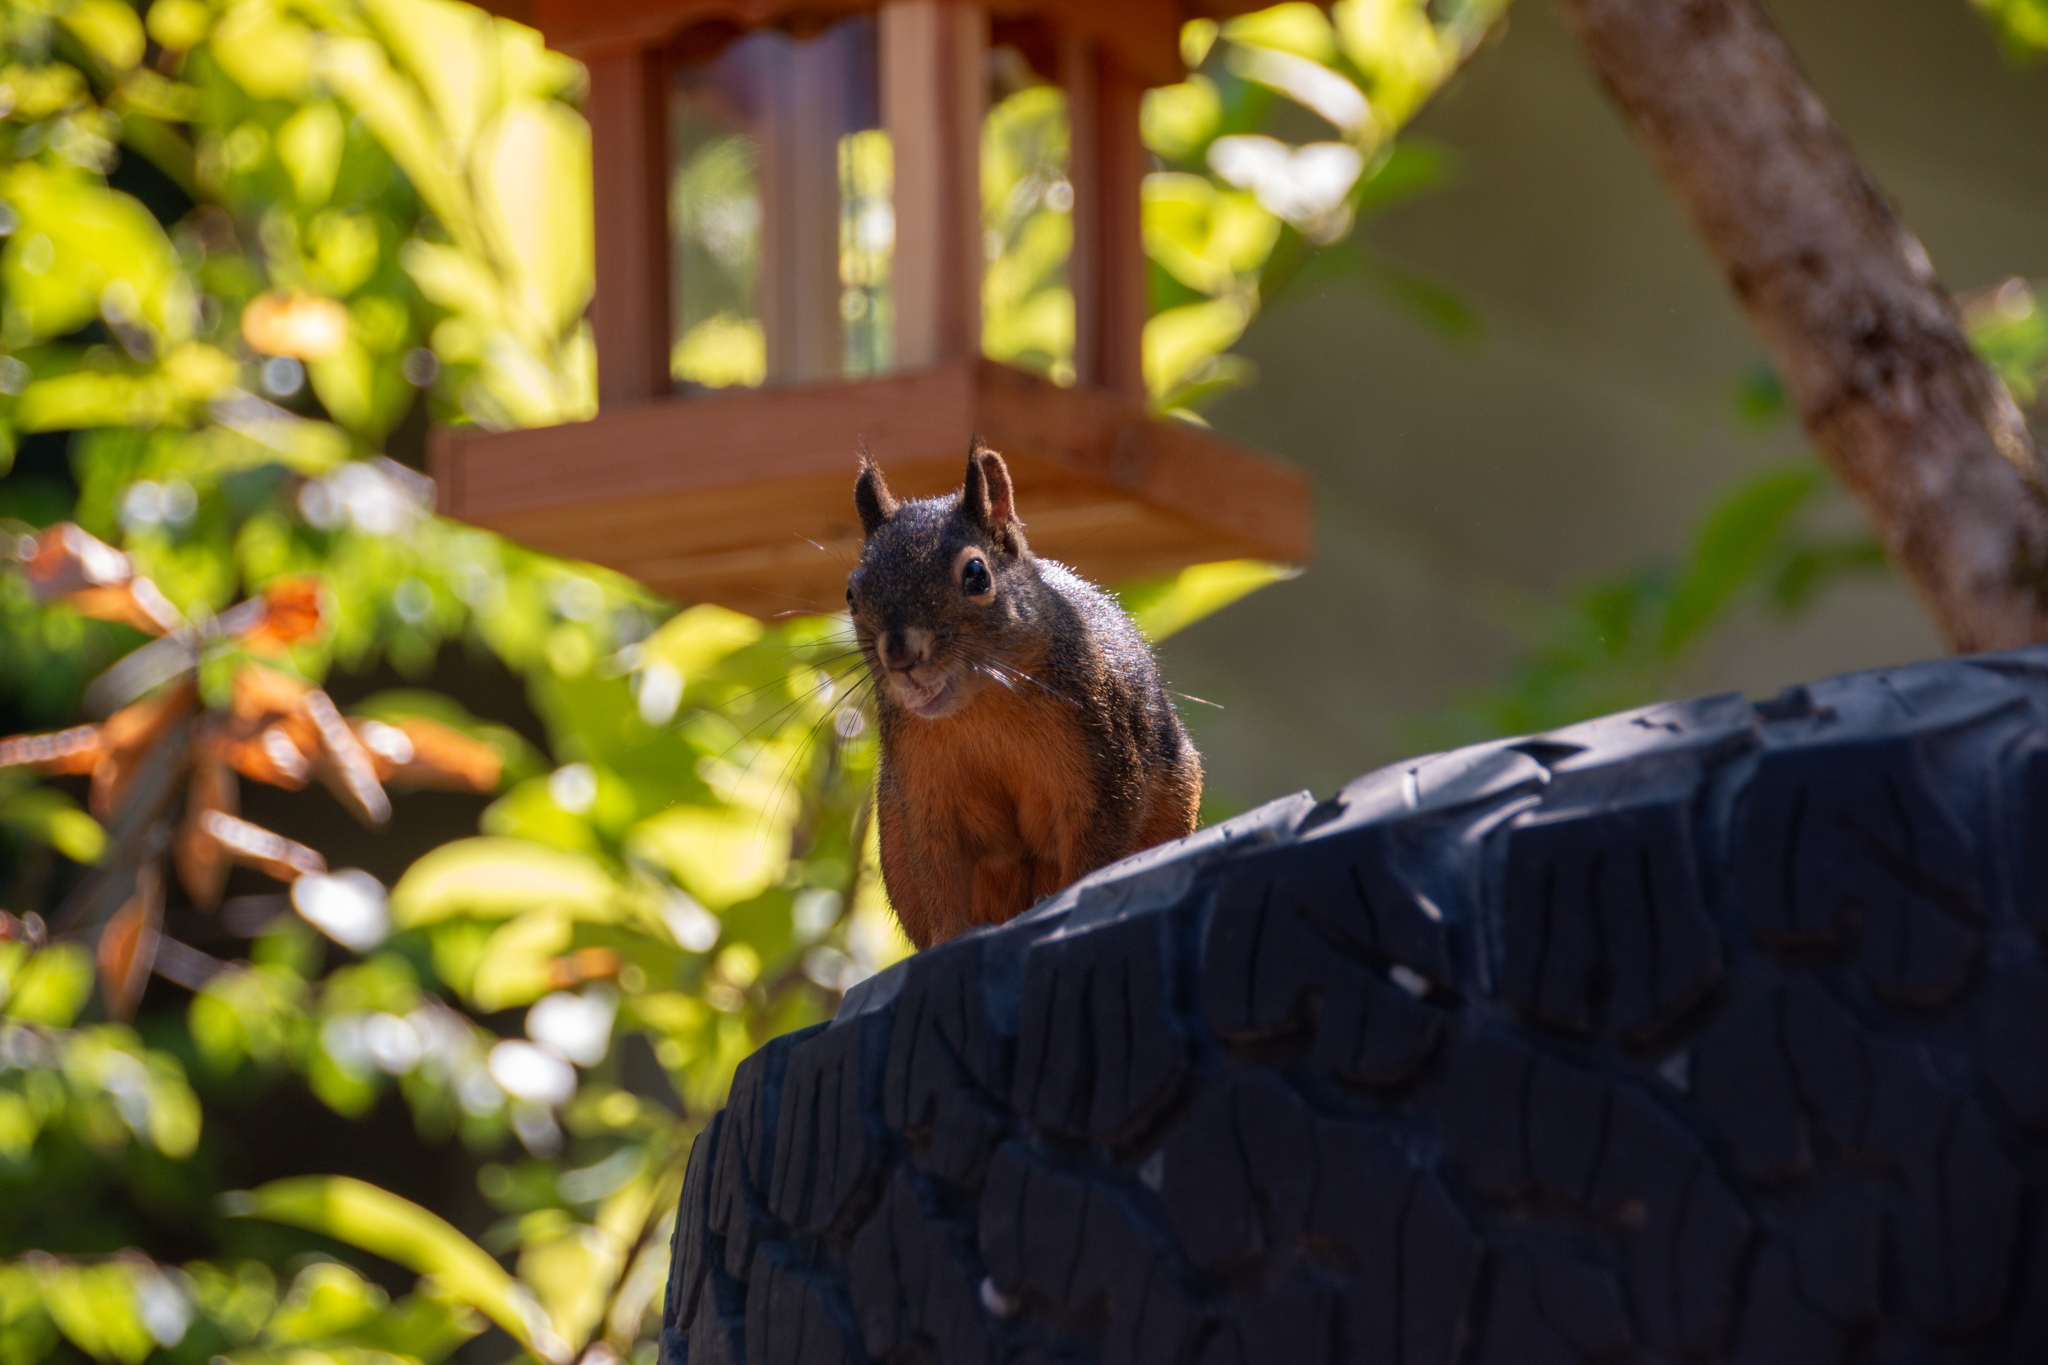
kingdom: Animalia
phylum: Chordata
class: Mammalia
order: Rodentia
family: Sciuridae
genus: Tamiasciurus
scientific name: Tamiasciurus douglasii
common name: Douglas's squirrel
